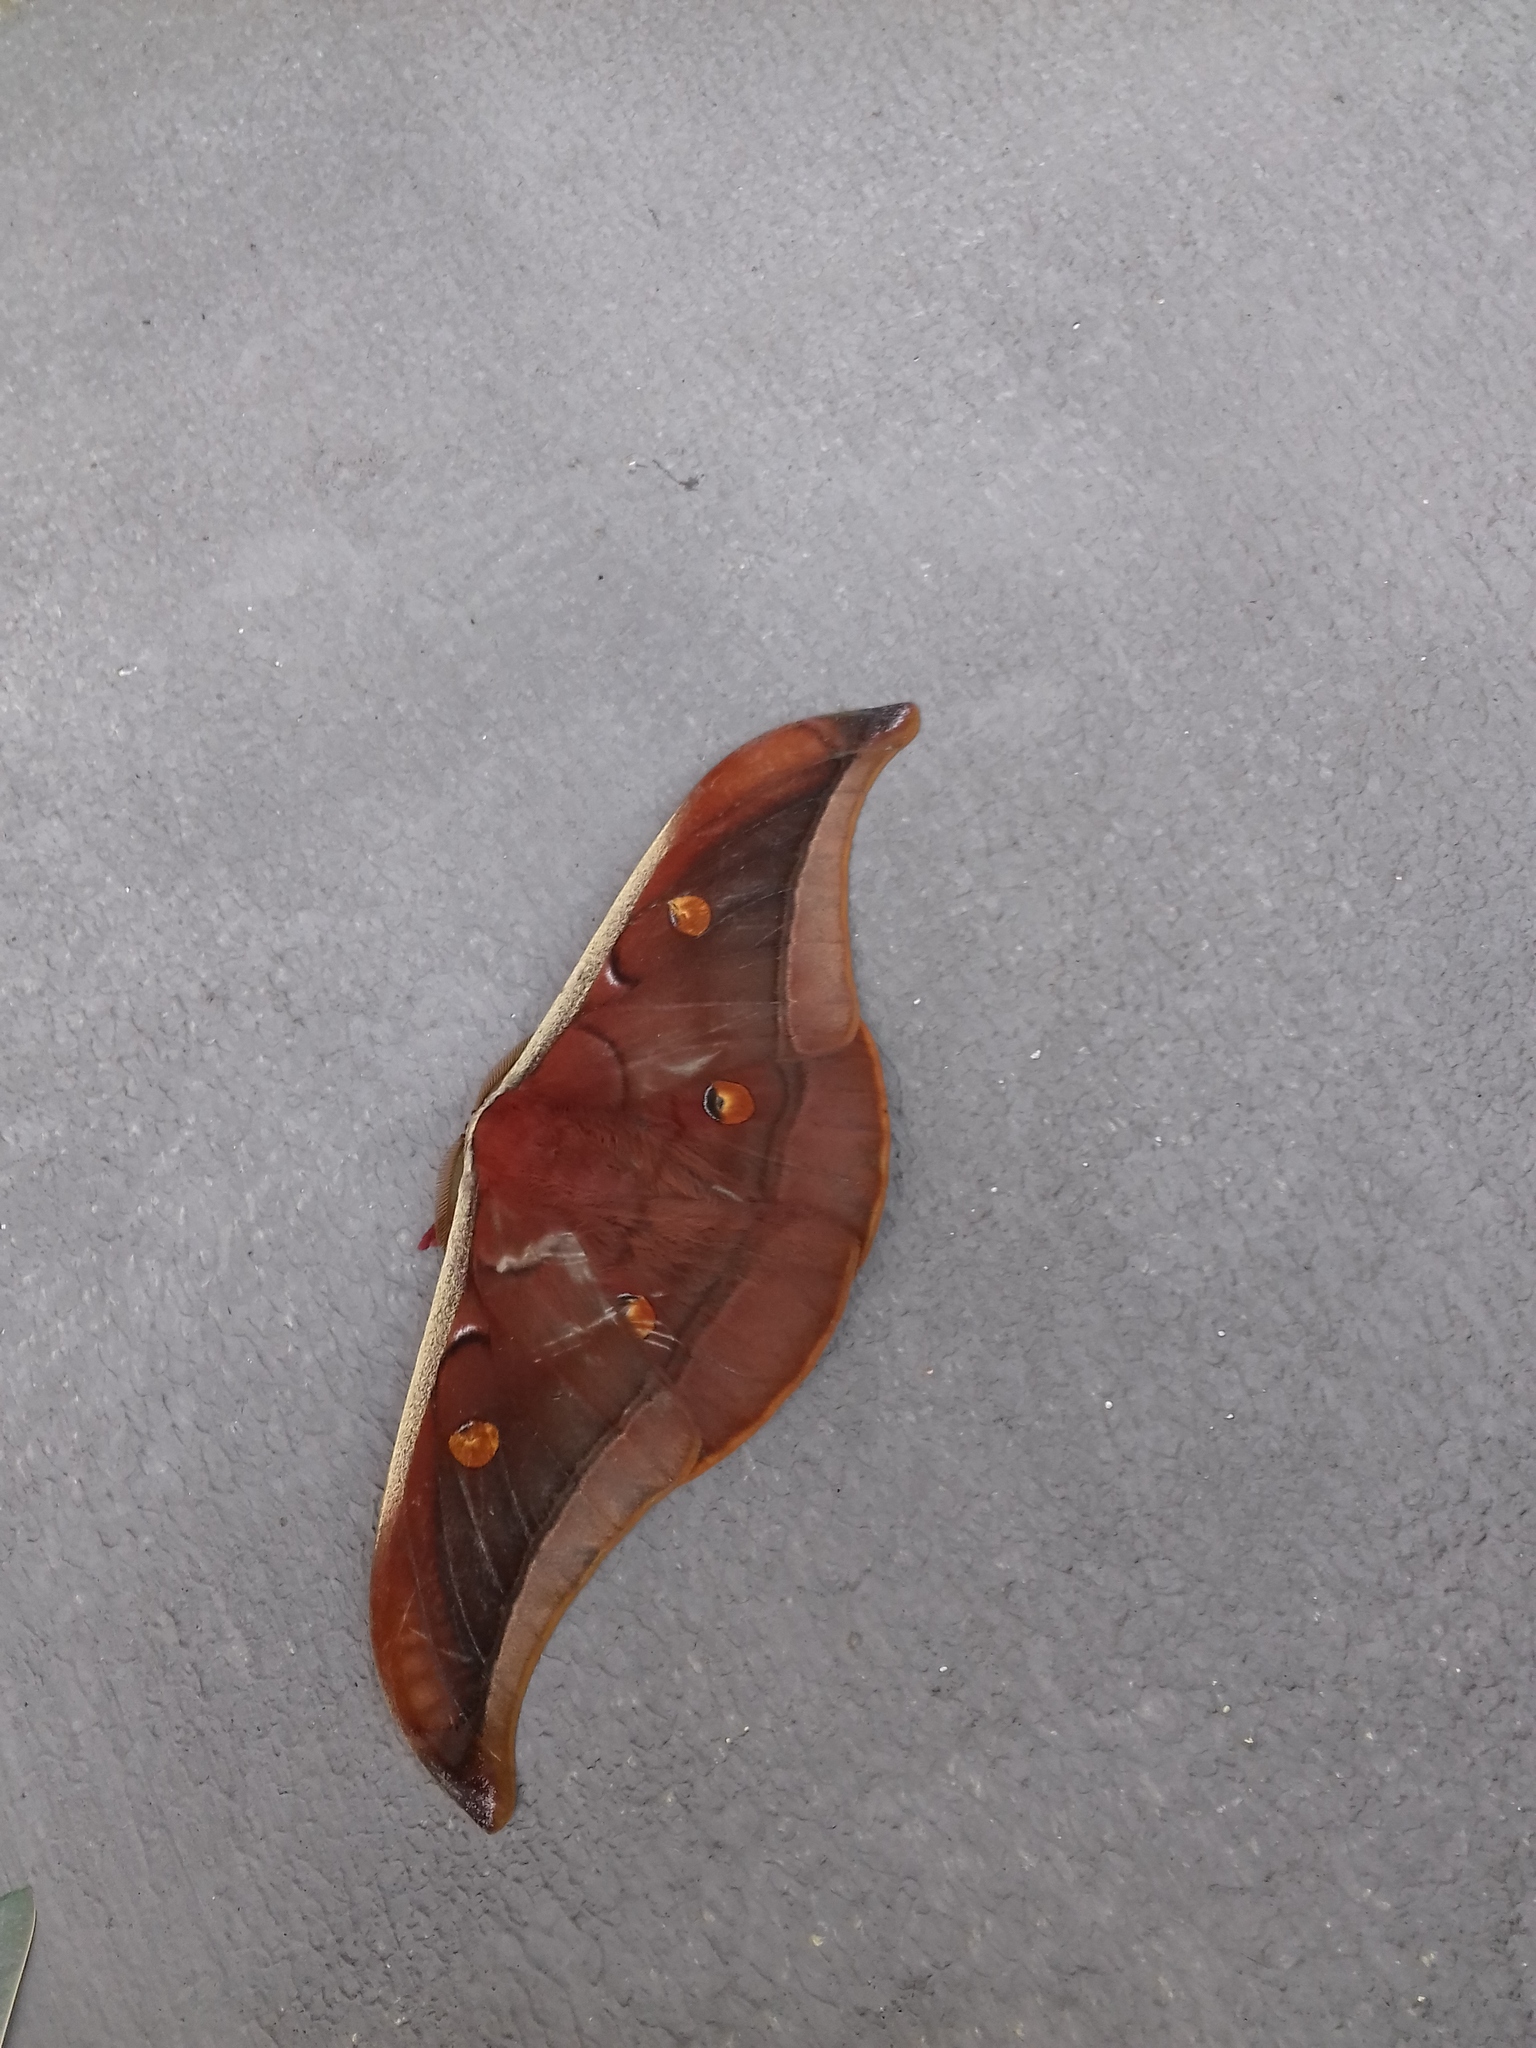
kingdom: Animalia
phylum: Arthropoda
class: Insecta
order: Lepidoptera
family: Saturniidae
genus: Antheraea
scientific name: Antheraea assamensis
